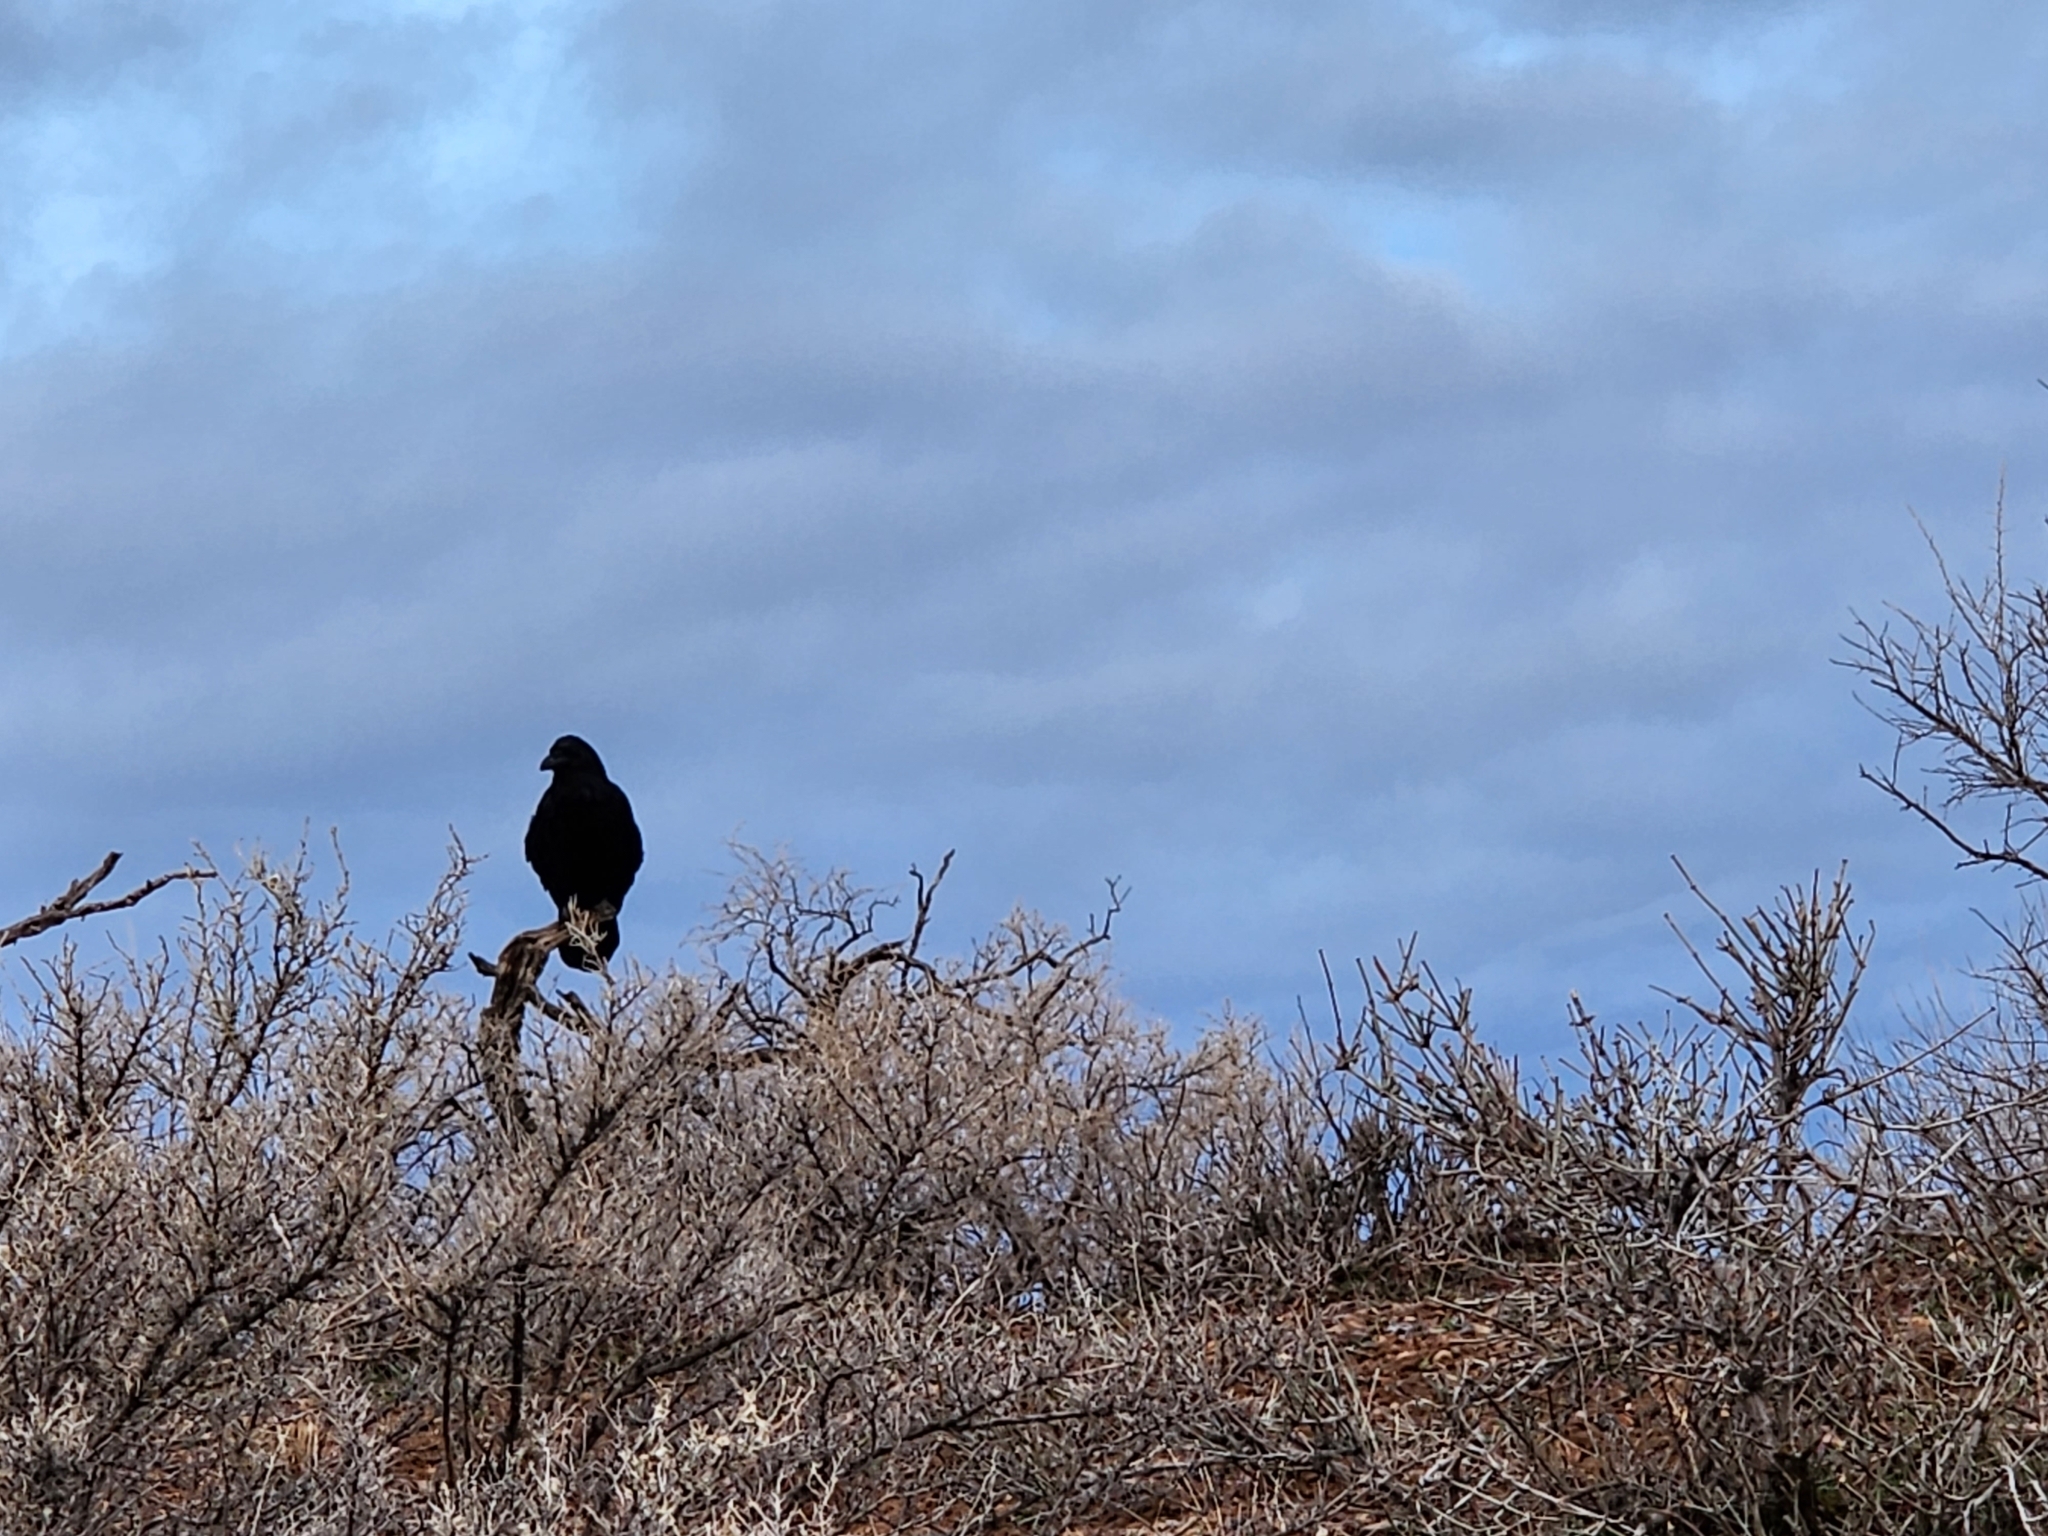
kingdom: Animalia
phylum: Chordata
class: Aves
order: Passeriformes
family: Corvidae
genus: Corvus
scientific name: Corvus corax
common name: Common raven
